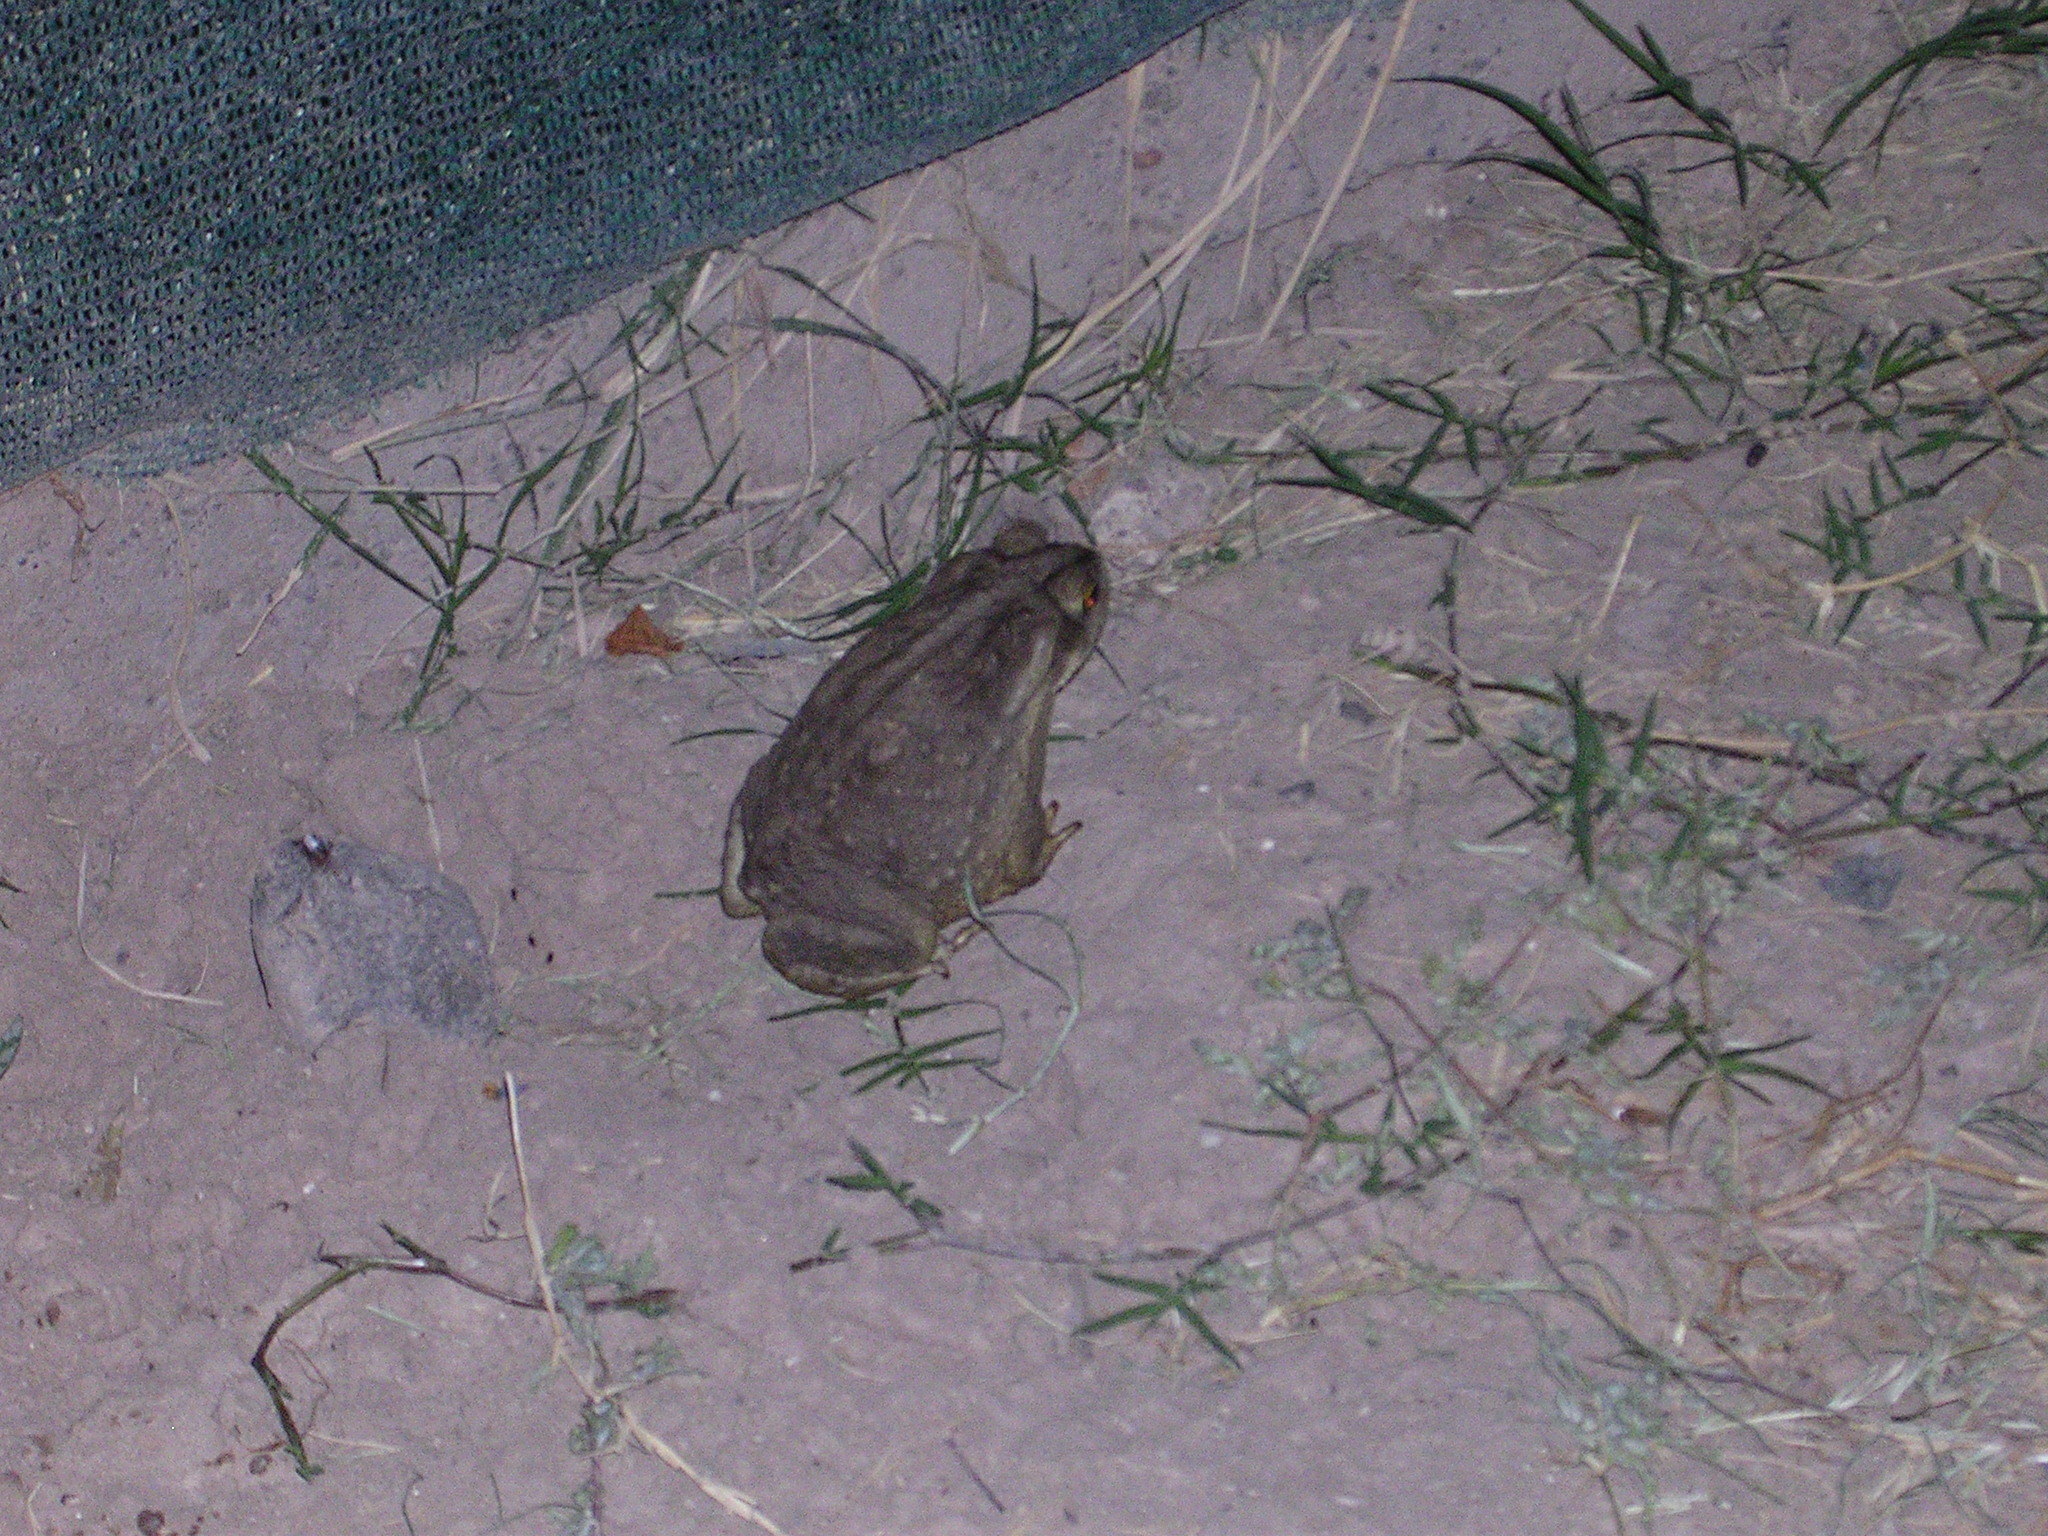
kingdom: Animalia
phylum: Chordata
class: Amphibia
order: Anura
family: Bufonidae
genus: Rhinella
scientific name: Rhinella arenarum
